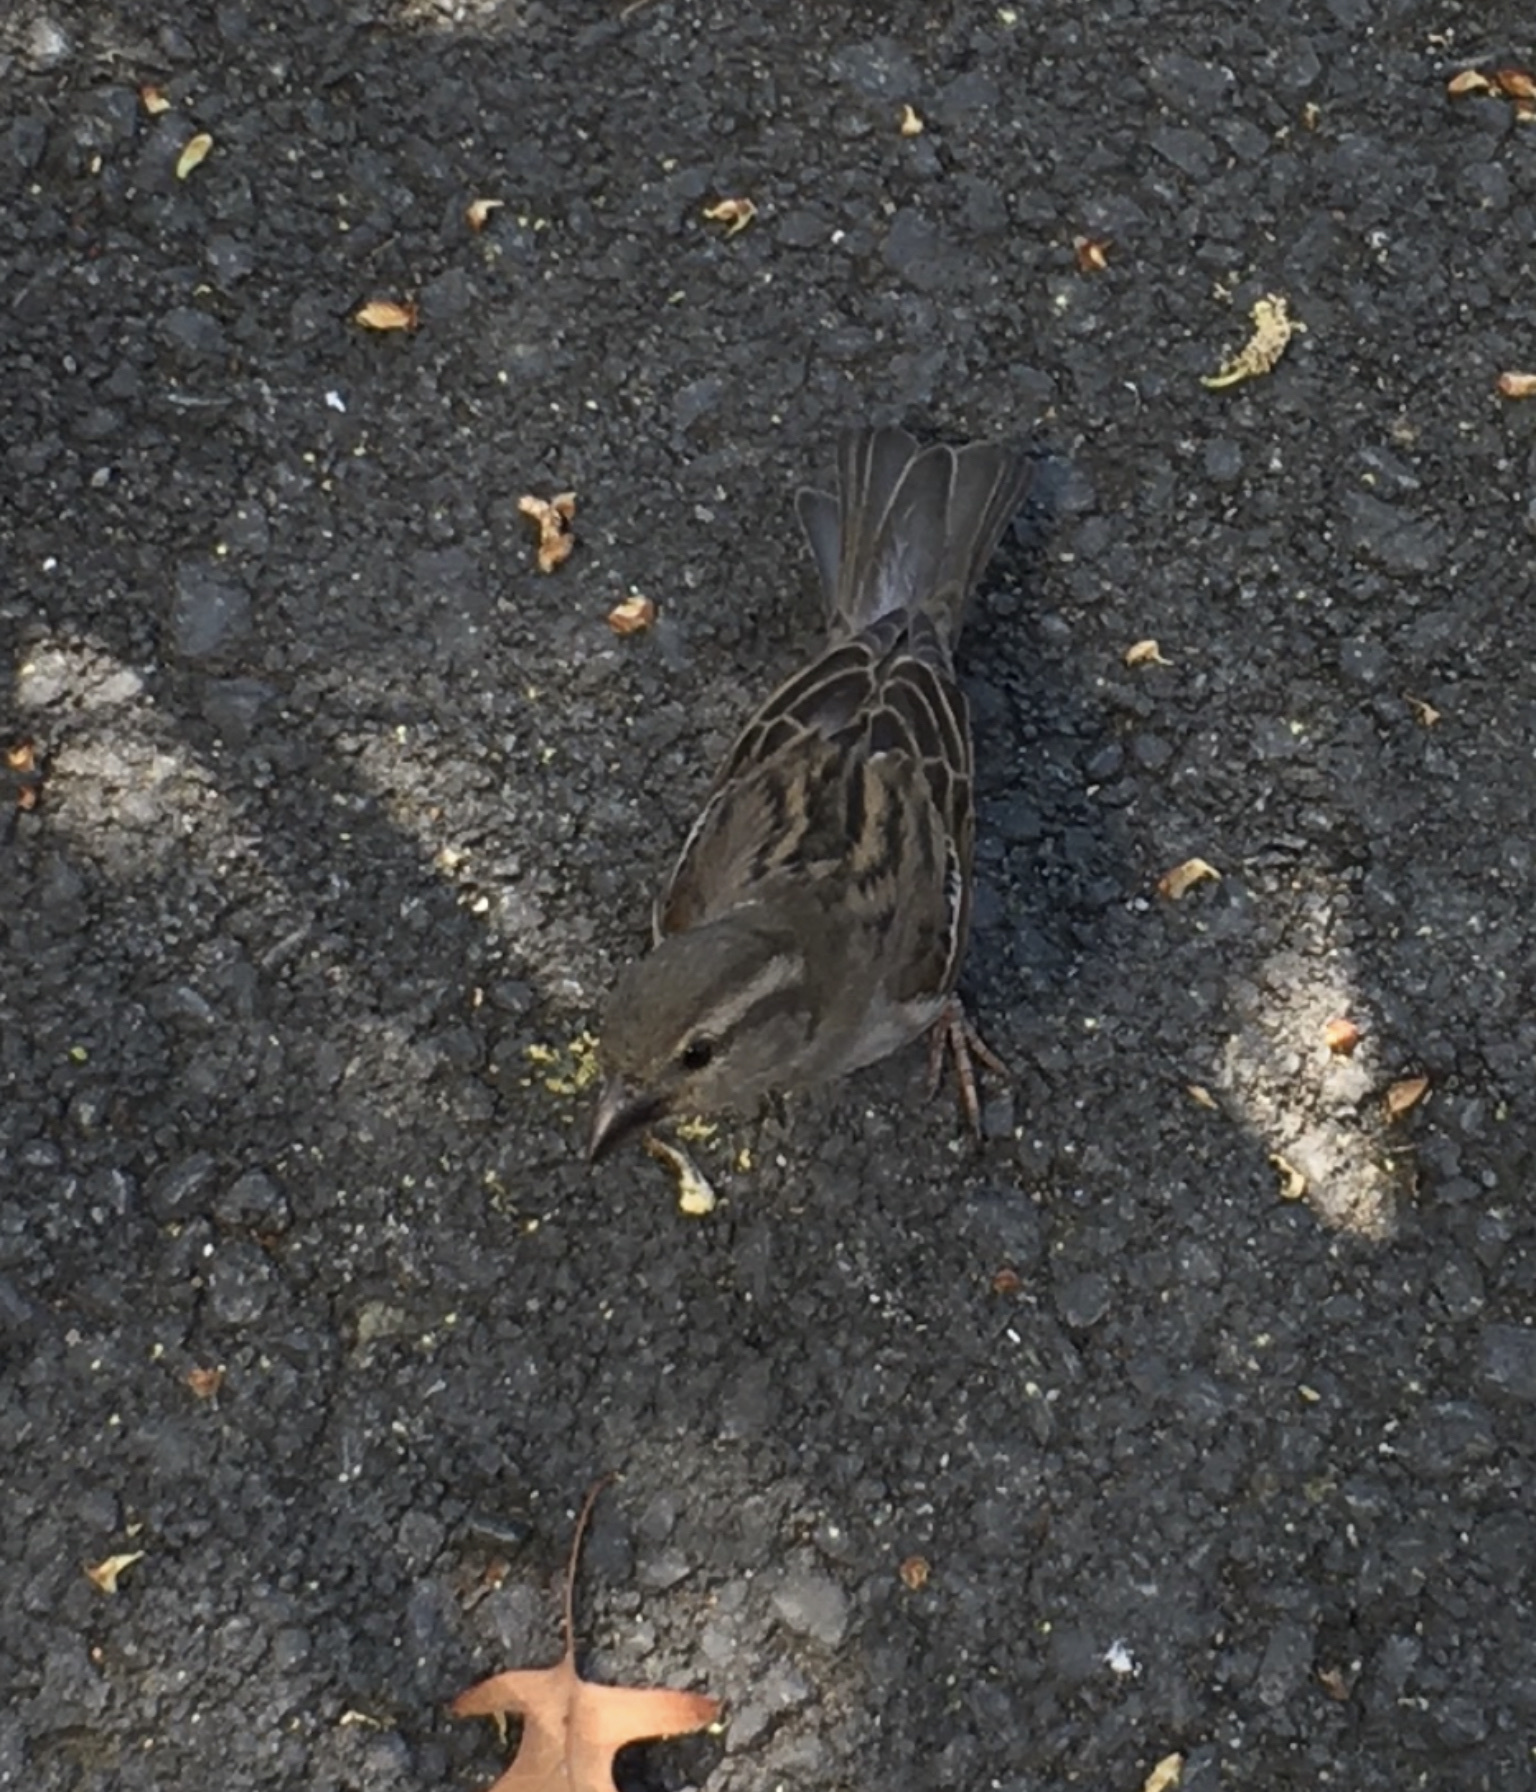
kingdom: Animalia
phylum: Chordata
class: Aves
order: Passeriformes
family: Passeridae
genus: Passer
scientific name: Passer domesticus
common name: House sparrow
